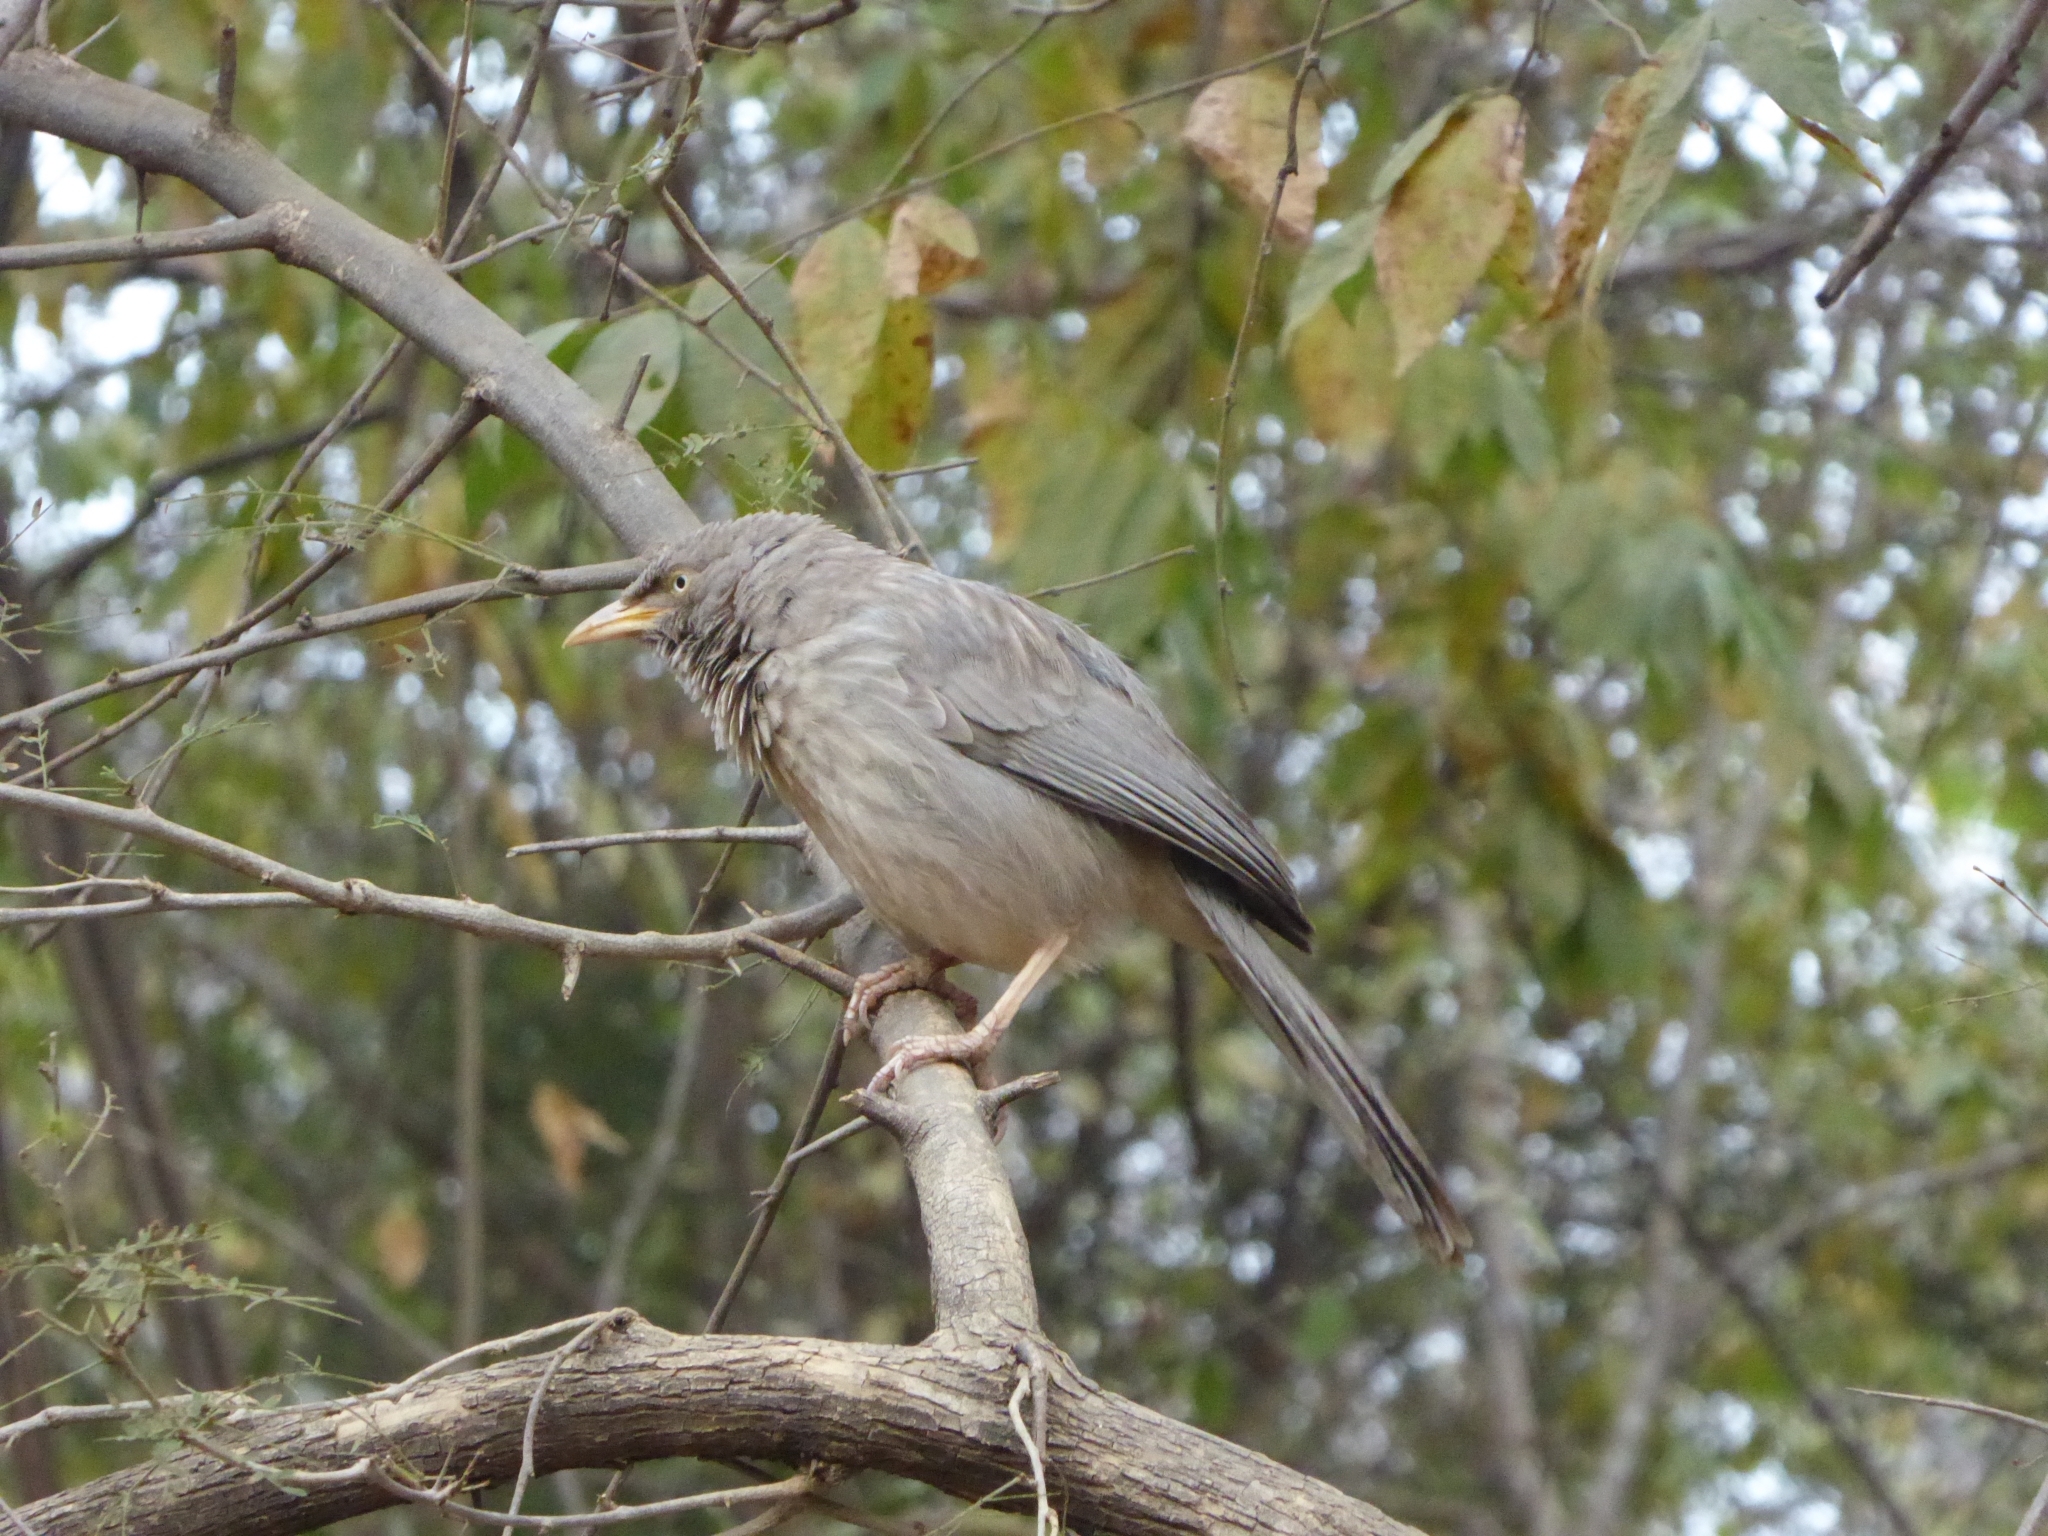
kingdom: Animalia
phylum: Chordata
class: Aves
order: Passeriformes
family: Leiothrichidae
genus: Turdoides
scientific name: Turdoides striata
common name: Jungle babbler
